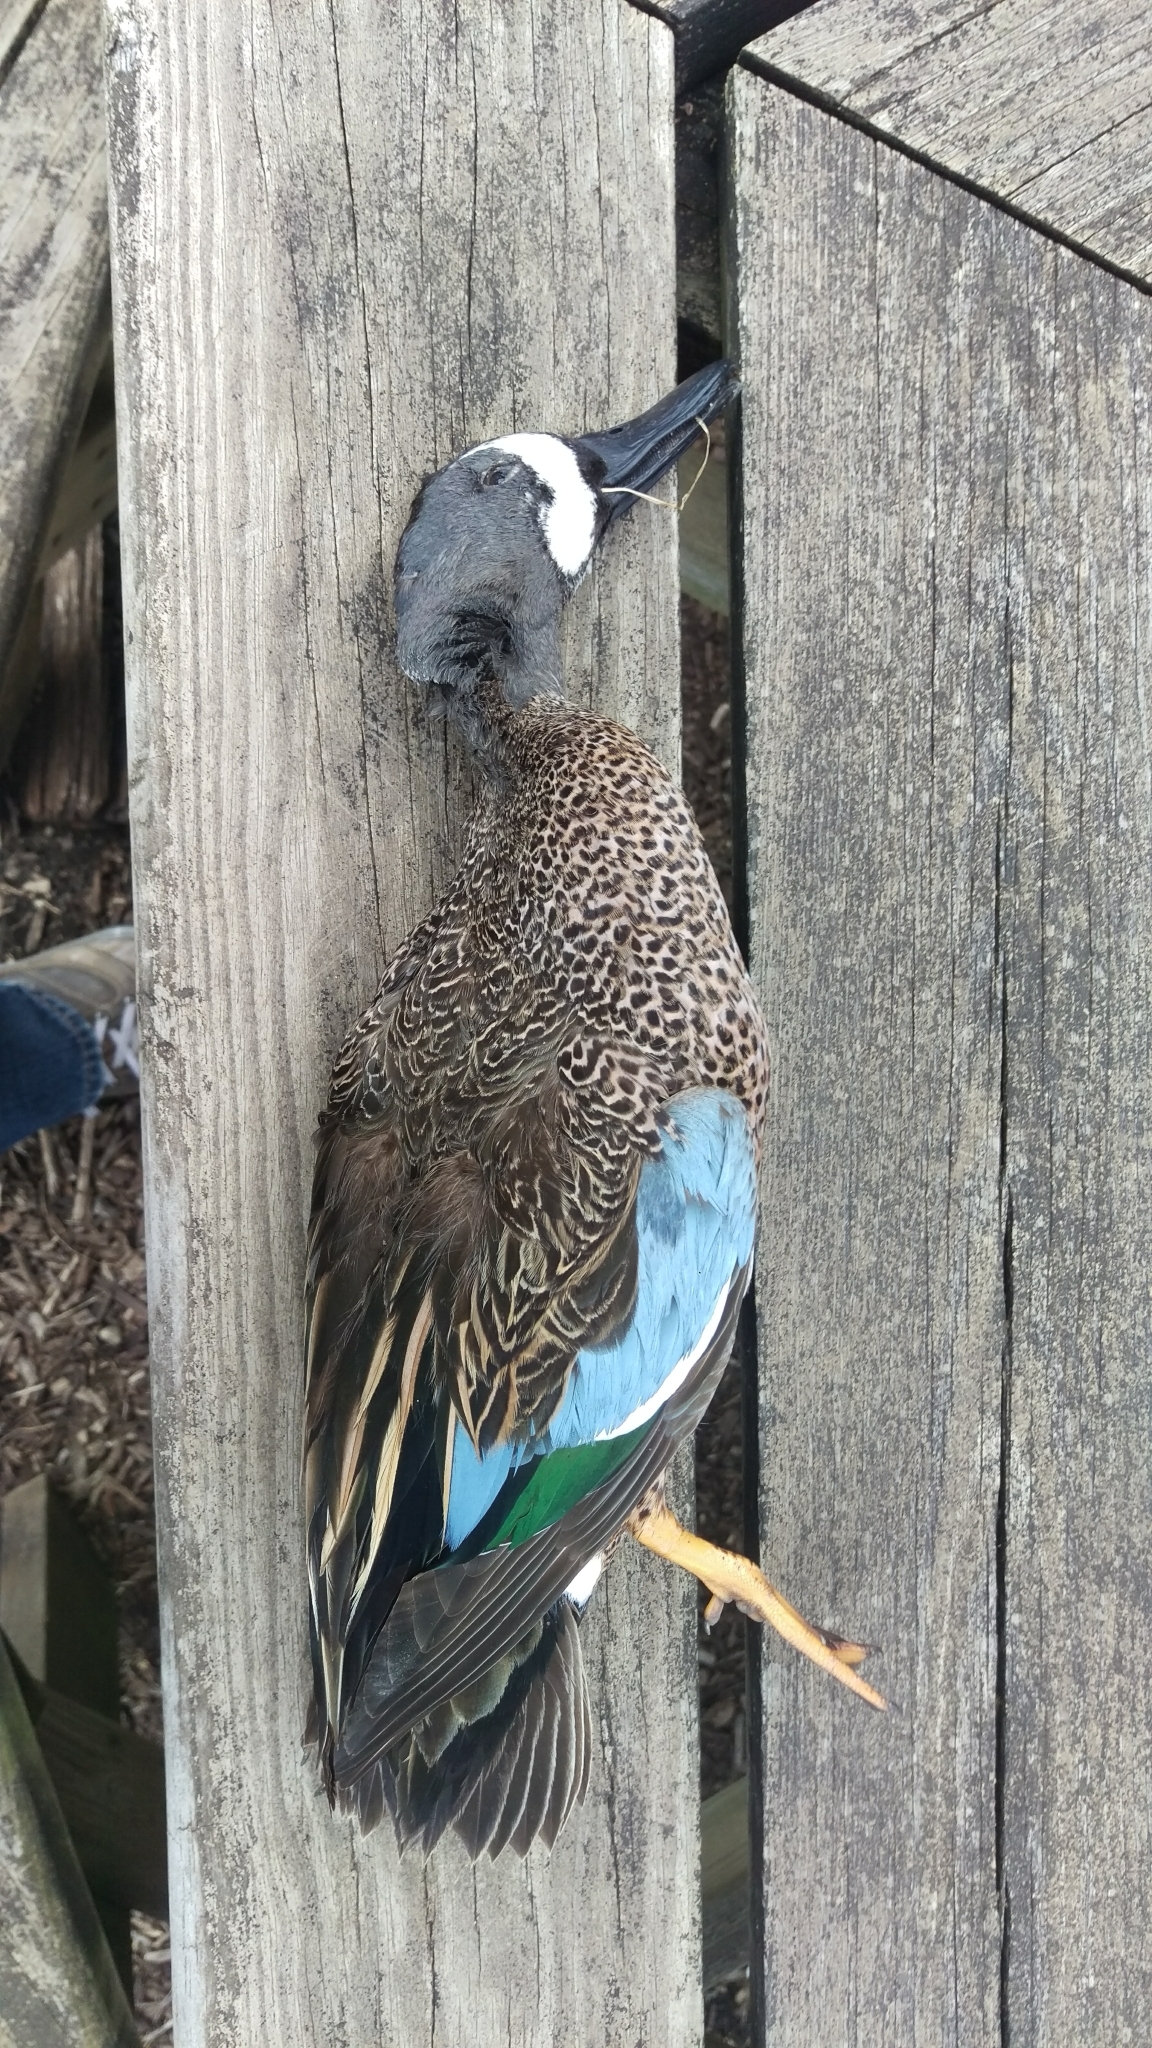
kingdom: Animalia
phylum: Chordata
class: Aves
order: Anseriformes
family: Anatidae
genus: Spatula
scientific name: Spatula discors
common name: Blue-winged teal
